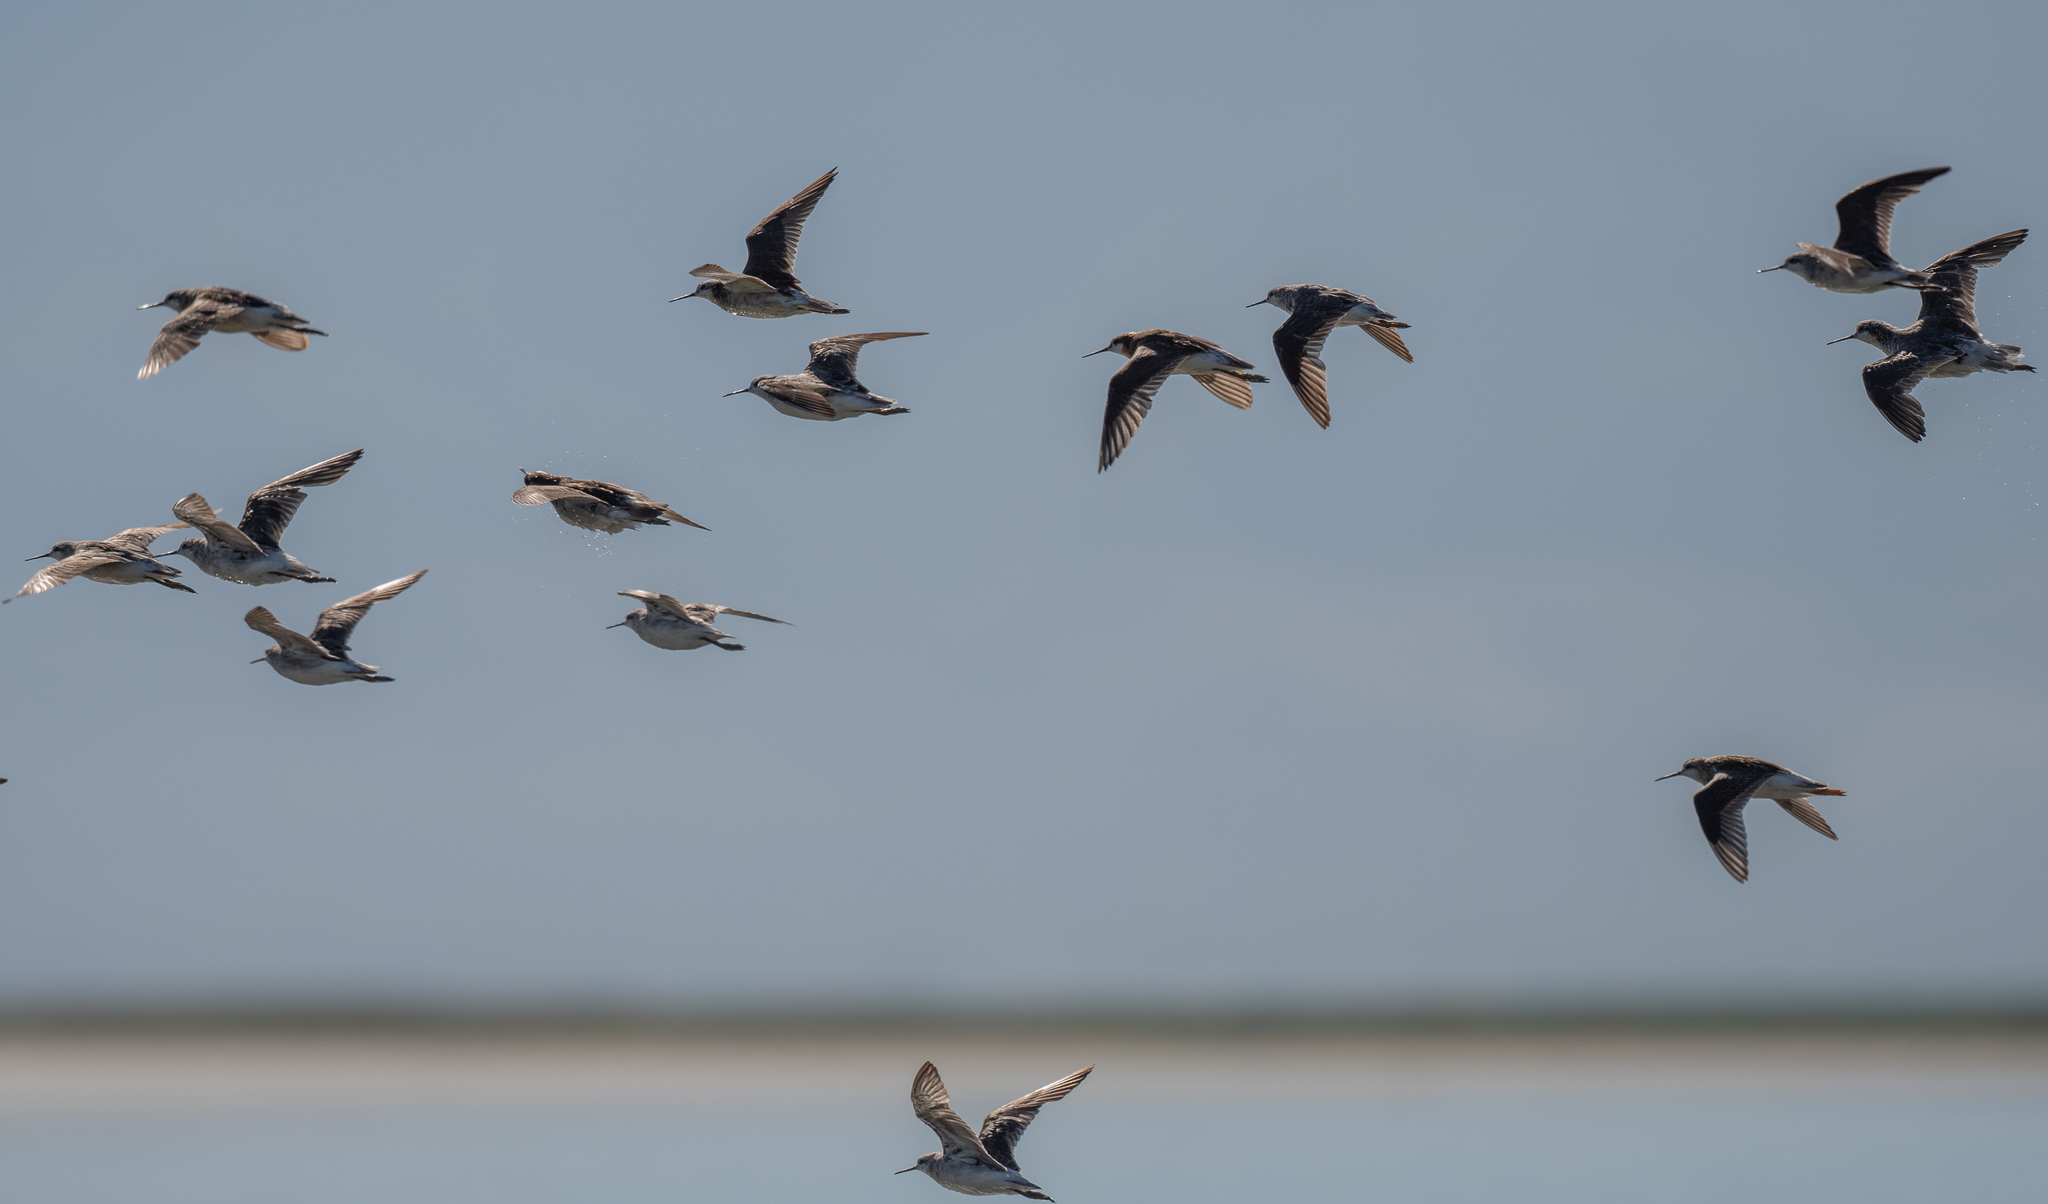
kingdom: Animalia
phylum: Chordata
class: Aves
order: Charadriiformes
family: Scolopacidae
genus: Phalaropus
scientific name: Phalaropus tricolor
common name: Wilson's phalarope
